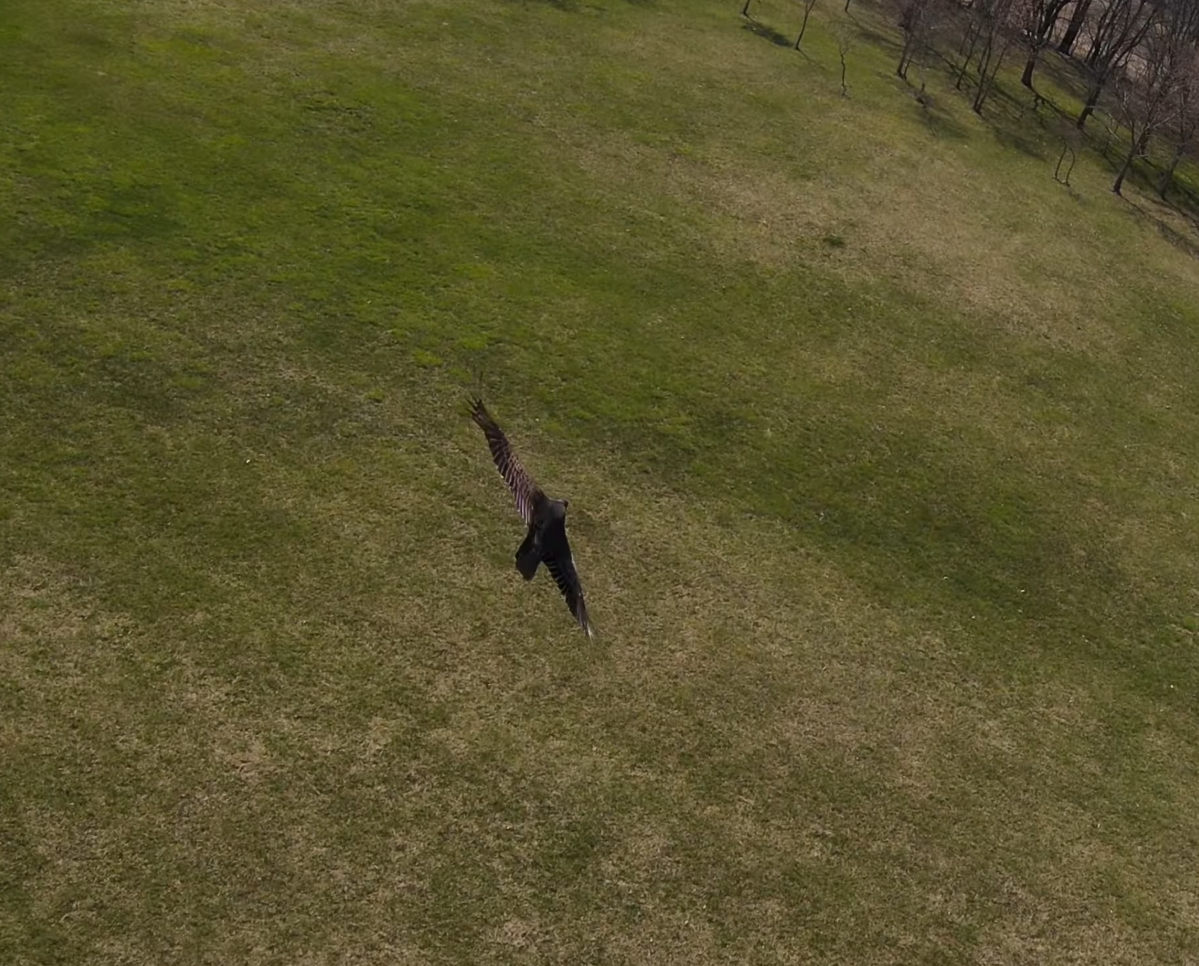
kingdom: Animalia
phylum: Chordata
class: Aves
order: Accipitriformes
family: Cathartidae
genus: Cathartes
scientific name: Cathartes aura
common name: Turkey vulture
